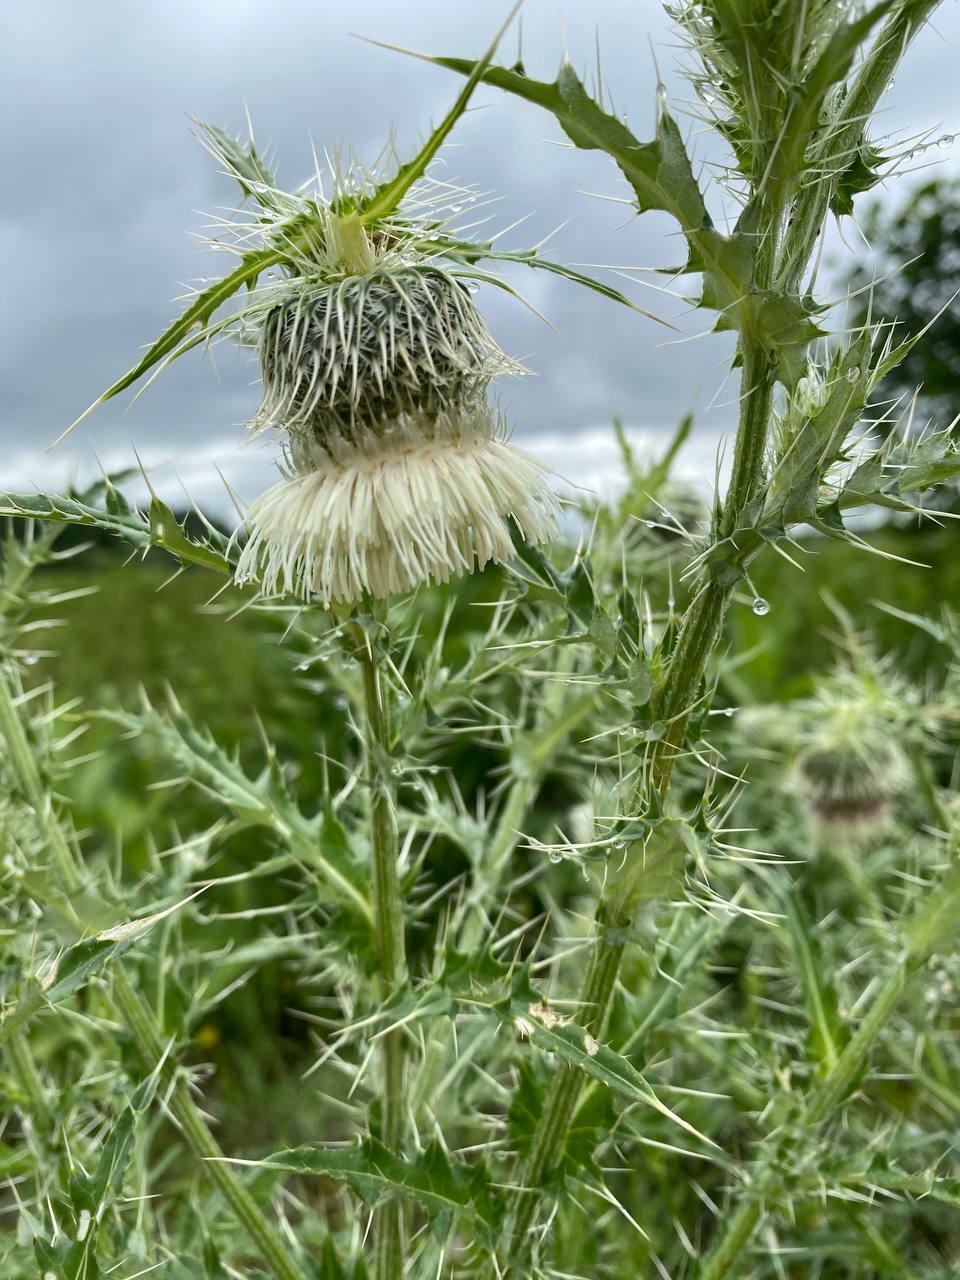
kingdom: Plantae
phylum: Tracheophyta
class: Magnoliopsida
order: Asterales
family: Asteraceae
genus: Cirsium
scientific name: Cirsium echinus
